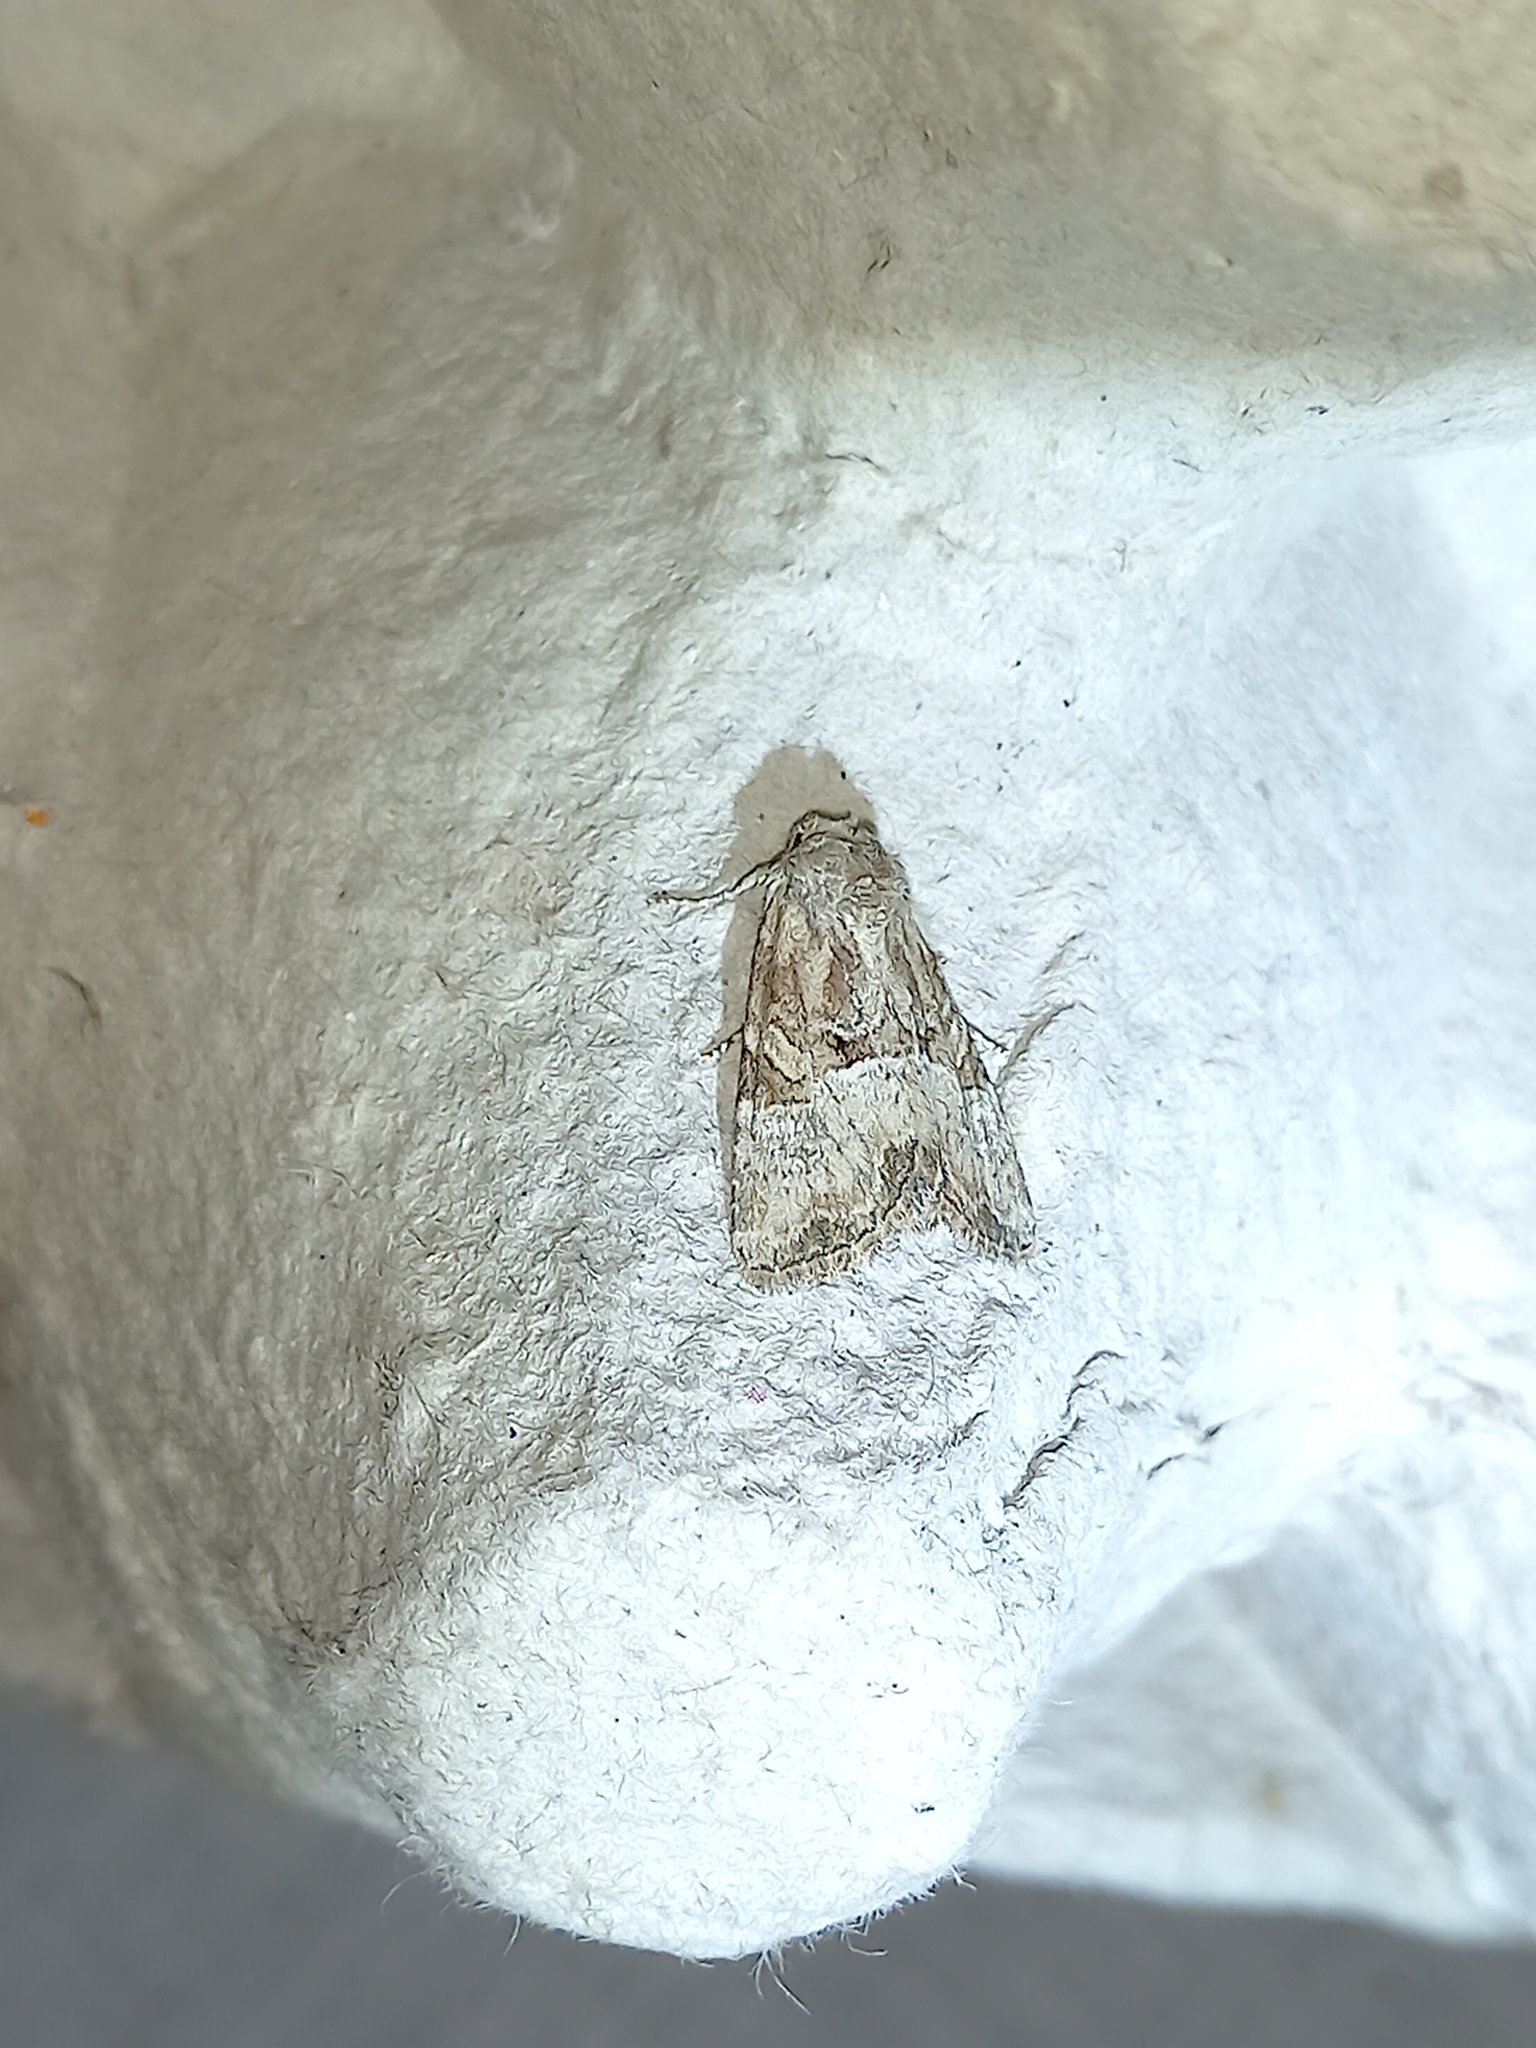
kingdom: Animalia
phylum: Arthropoda
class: Insecta
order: Lepidoptera
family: Noctuidae
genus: Mesoligia
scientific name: Mesoligia furuncula
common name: Cloaked minor
